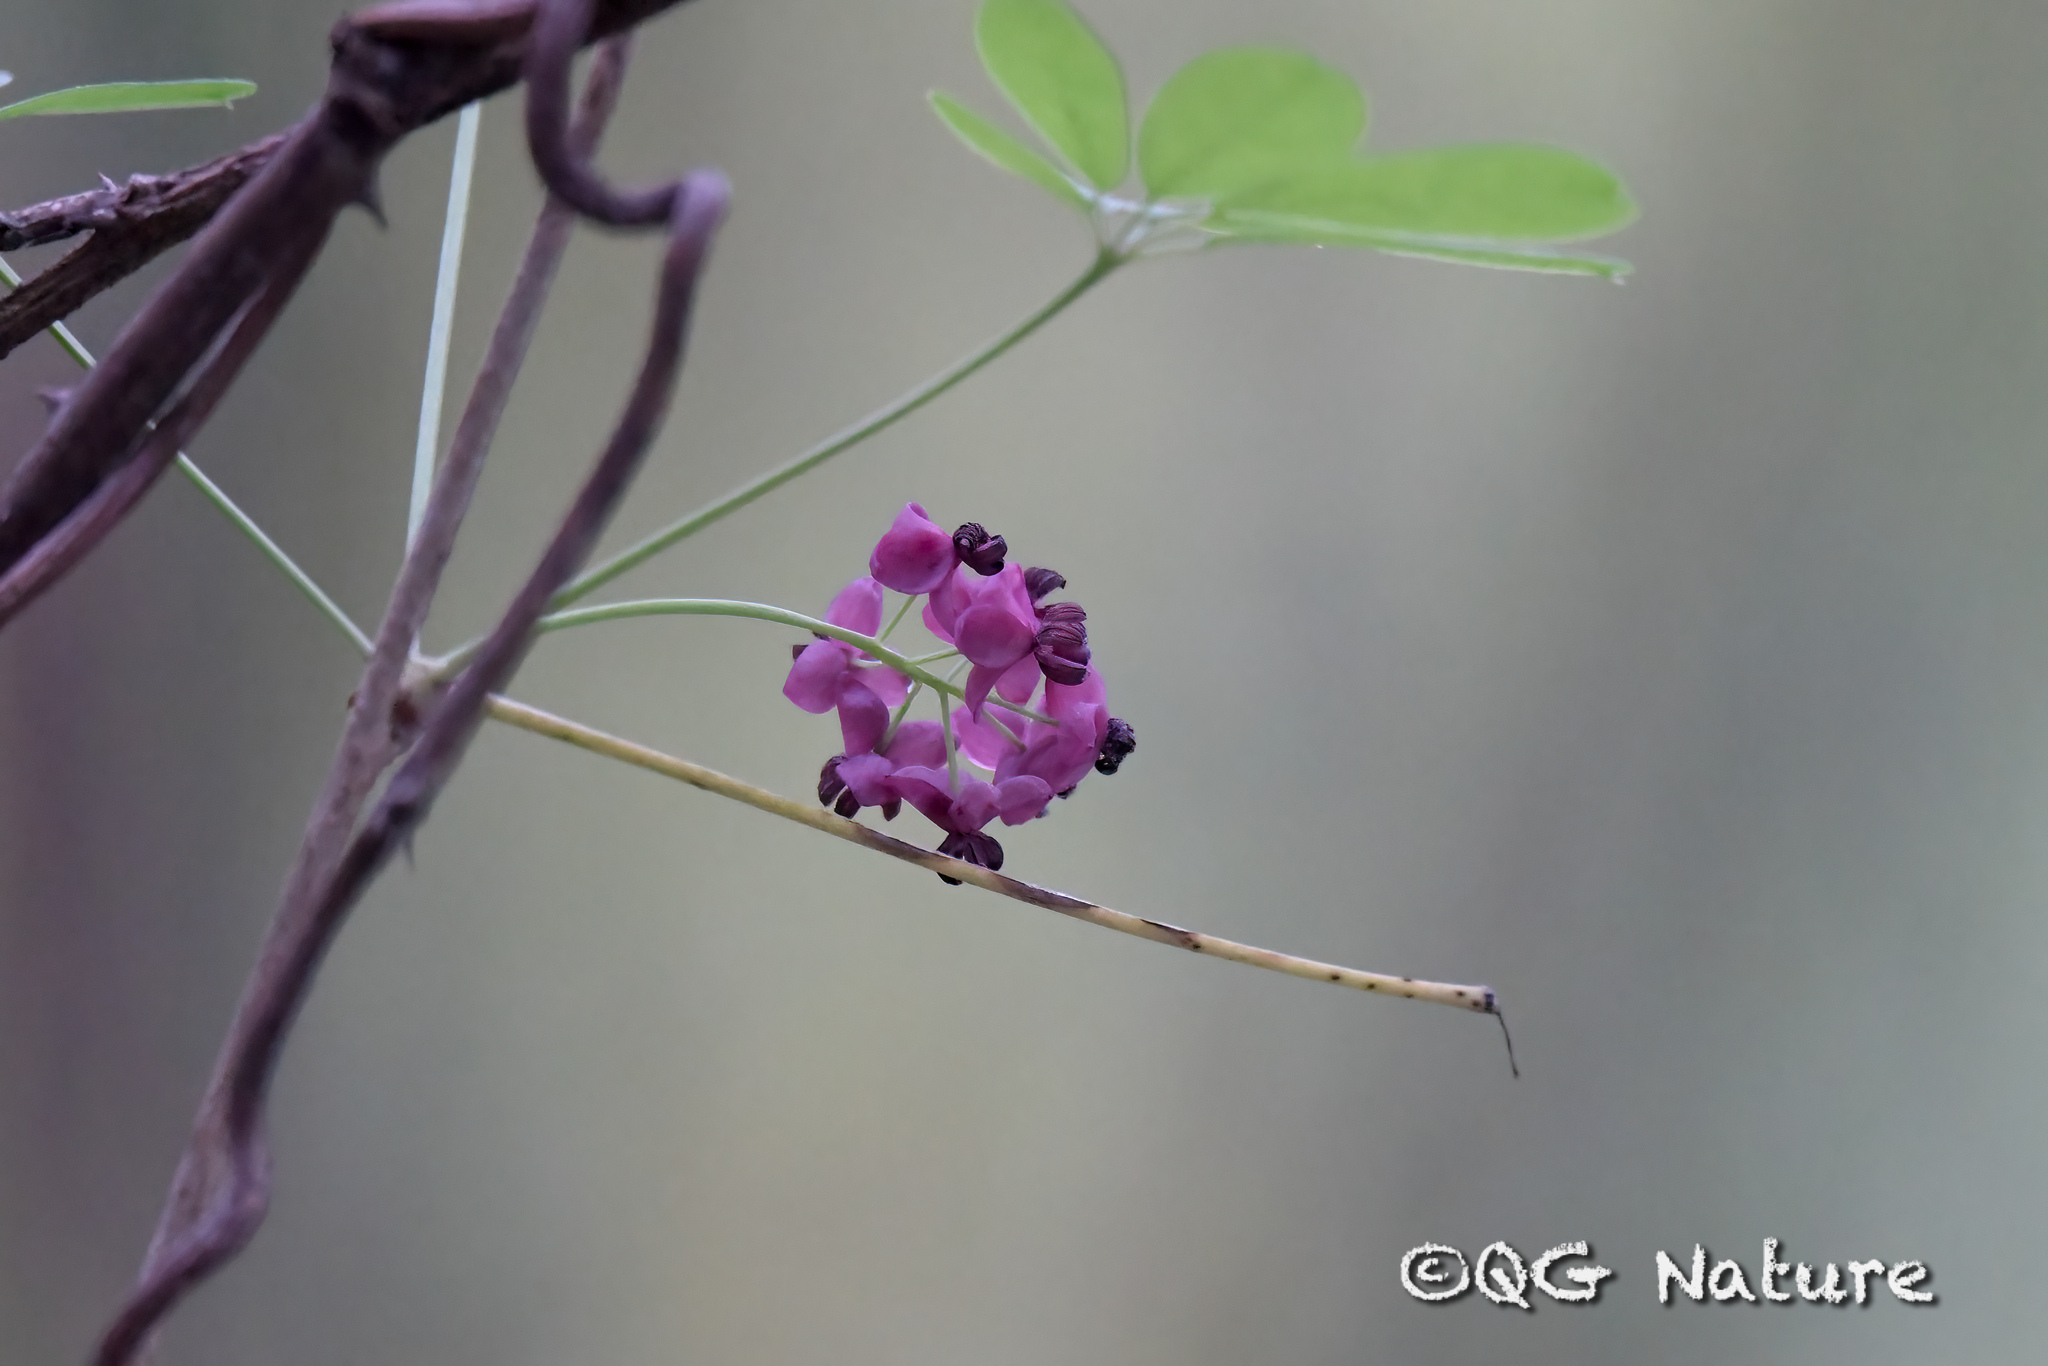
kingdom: Plantae
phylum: Tracheophyta
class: Magnoliopsida
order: Ranunculales
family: Lardizabalaceae
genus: Akebia
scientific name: Akebia quinata
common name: Five-leaf akebia
